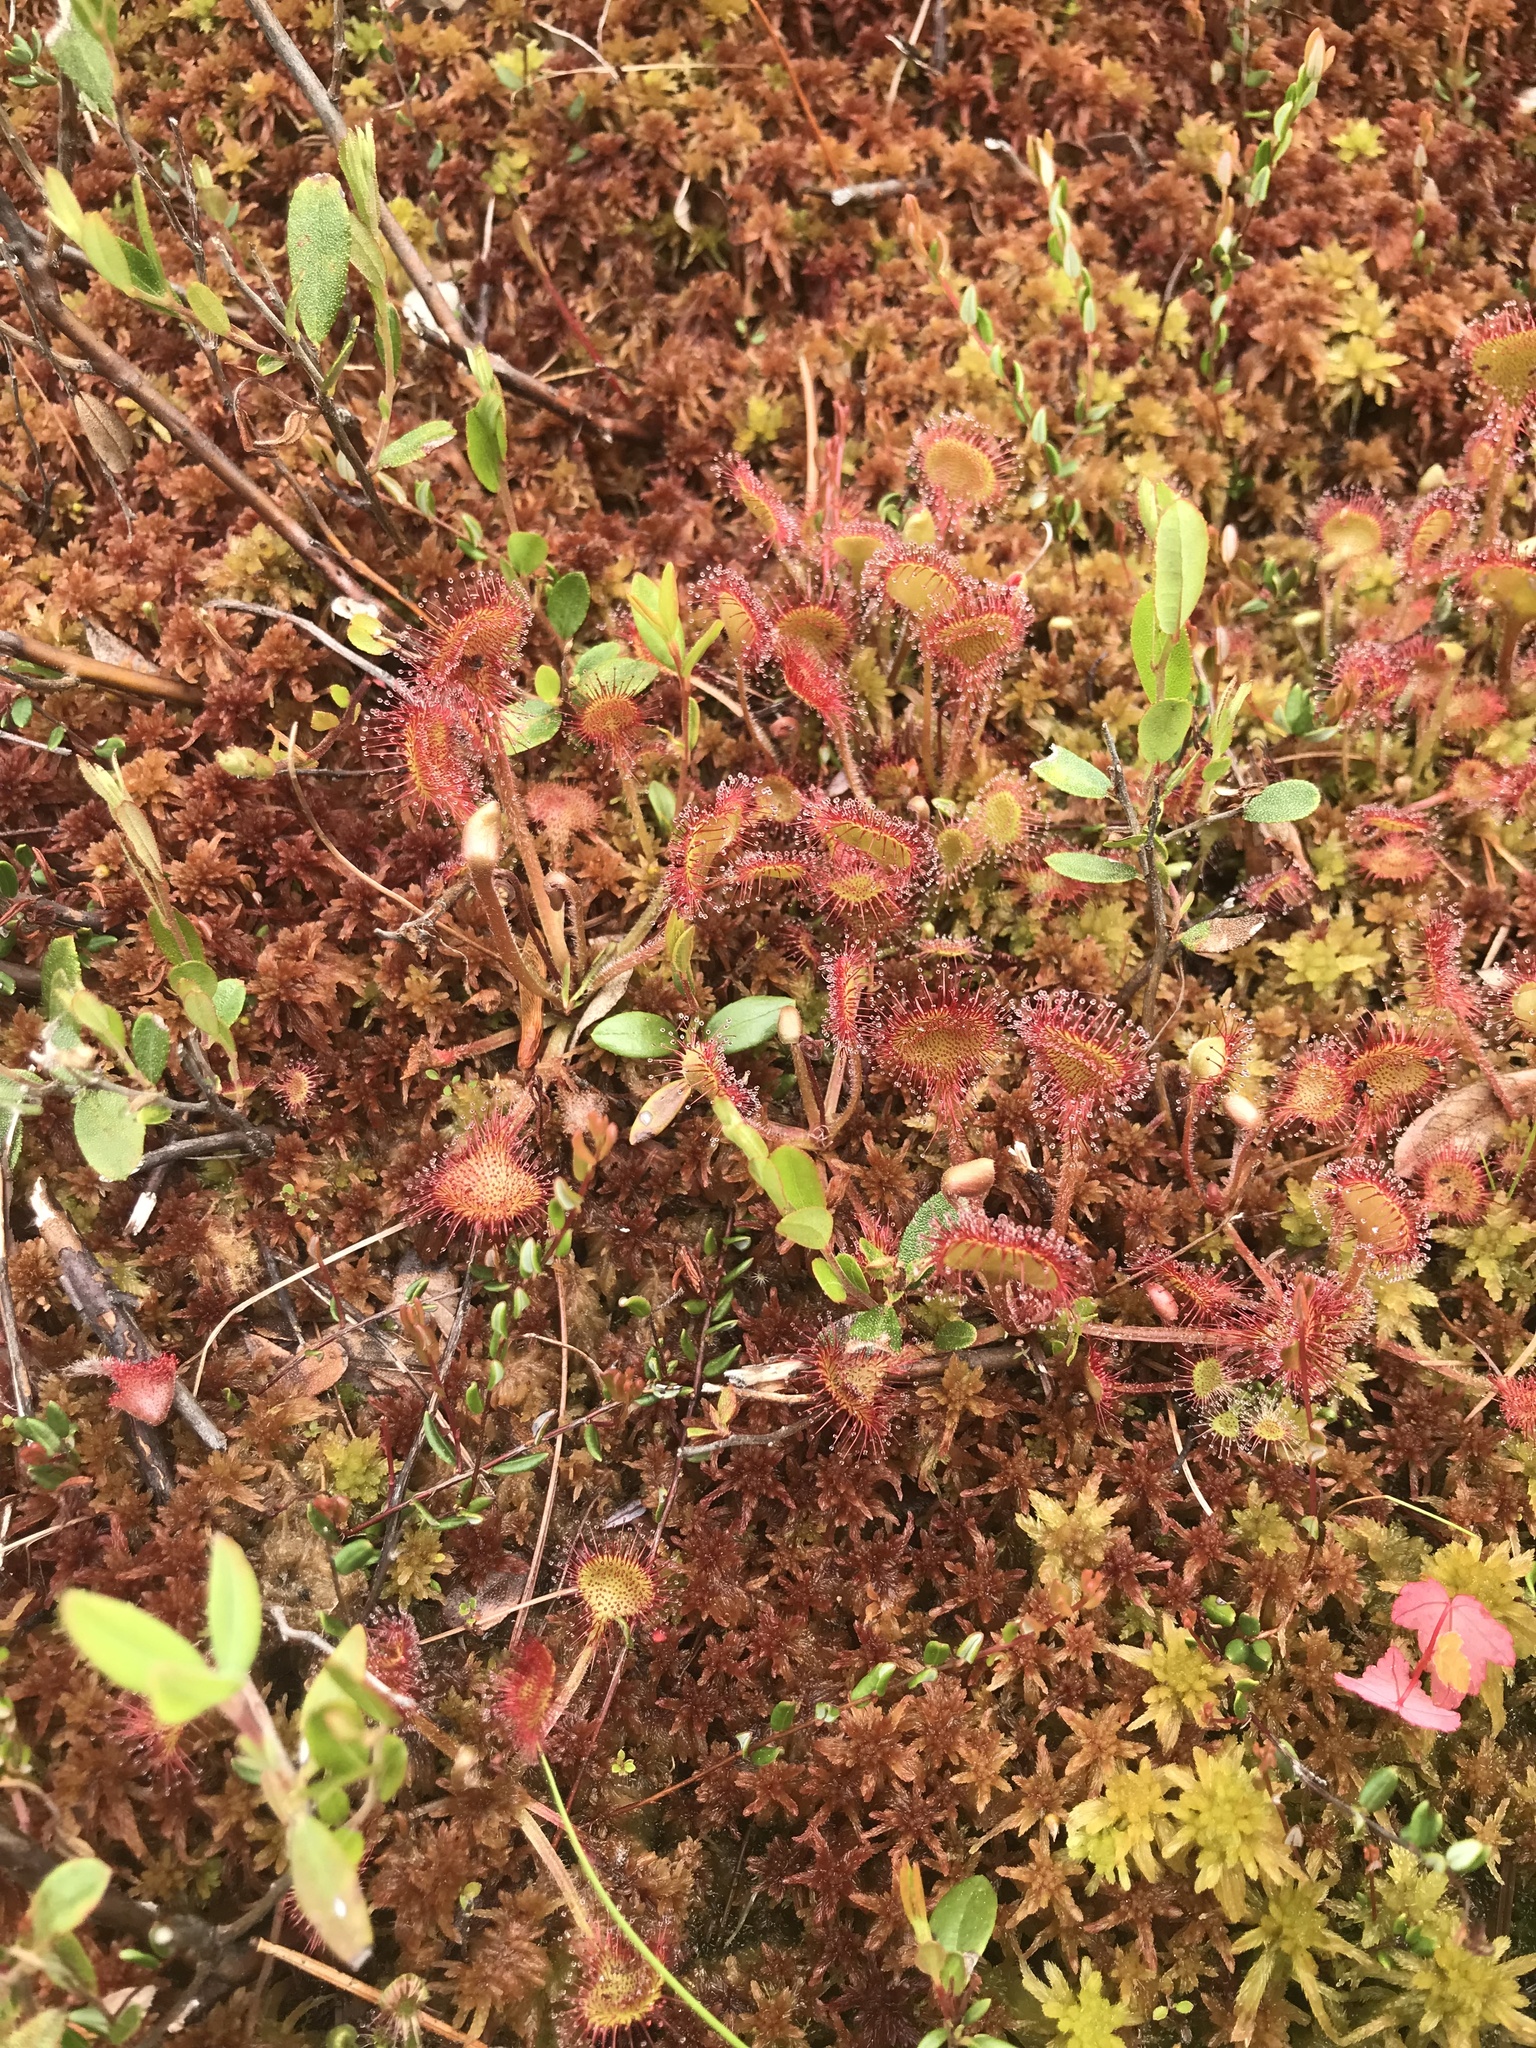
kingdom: Plantae
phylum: Tracheophyta
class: Magnoliopsida
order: Caryophyllales
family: Droseraceae
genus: Drosera
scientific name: Drosera rotundifolia
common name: Round-leaved sundew
